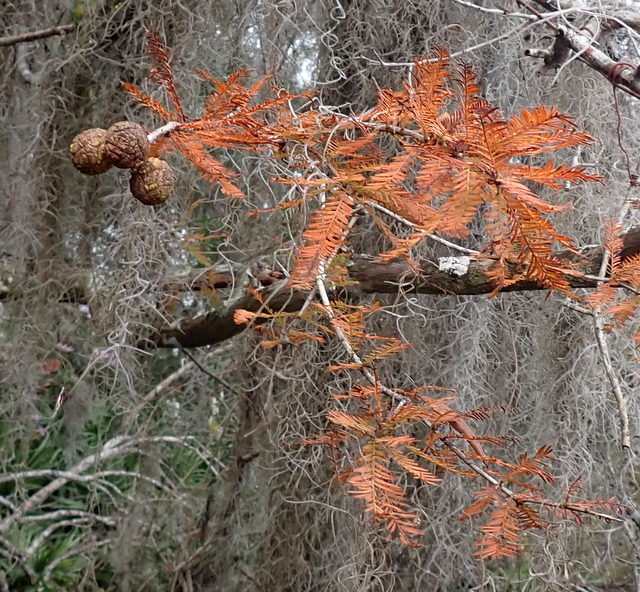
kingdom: Plantae
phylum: Tracheophyta
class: Pinopsida
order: Pinales
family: Cupressaceae
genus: Taxodium
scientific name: Taxodium distichum
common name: Bald cypress
